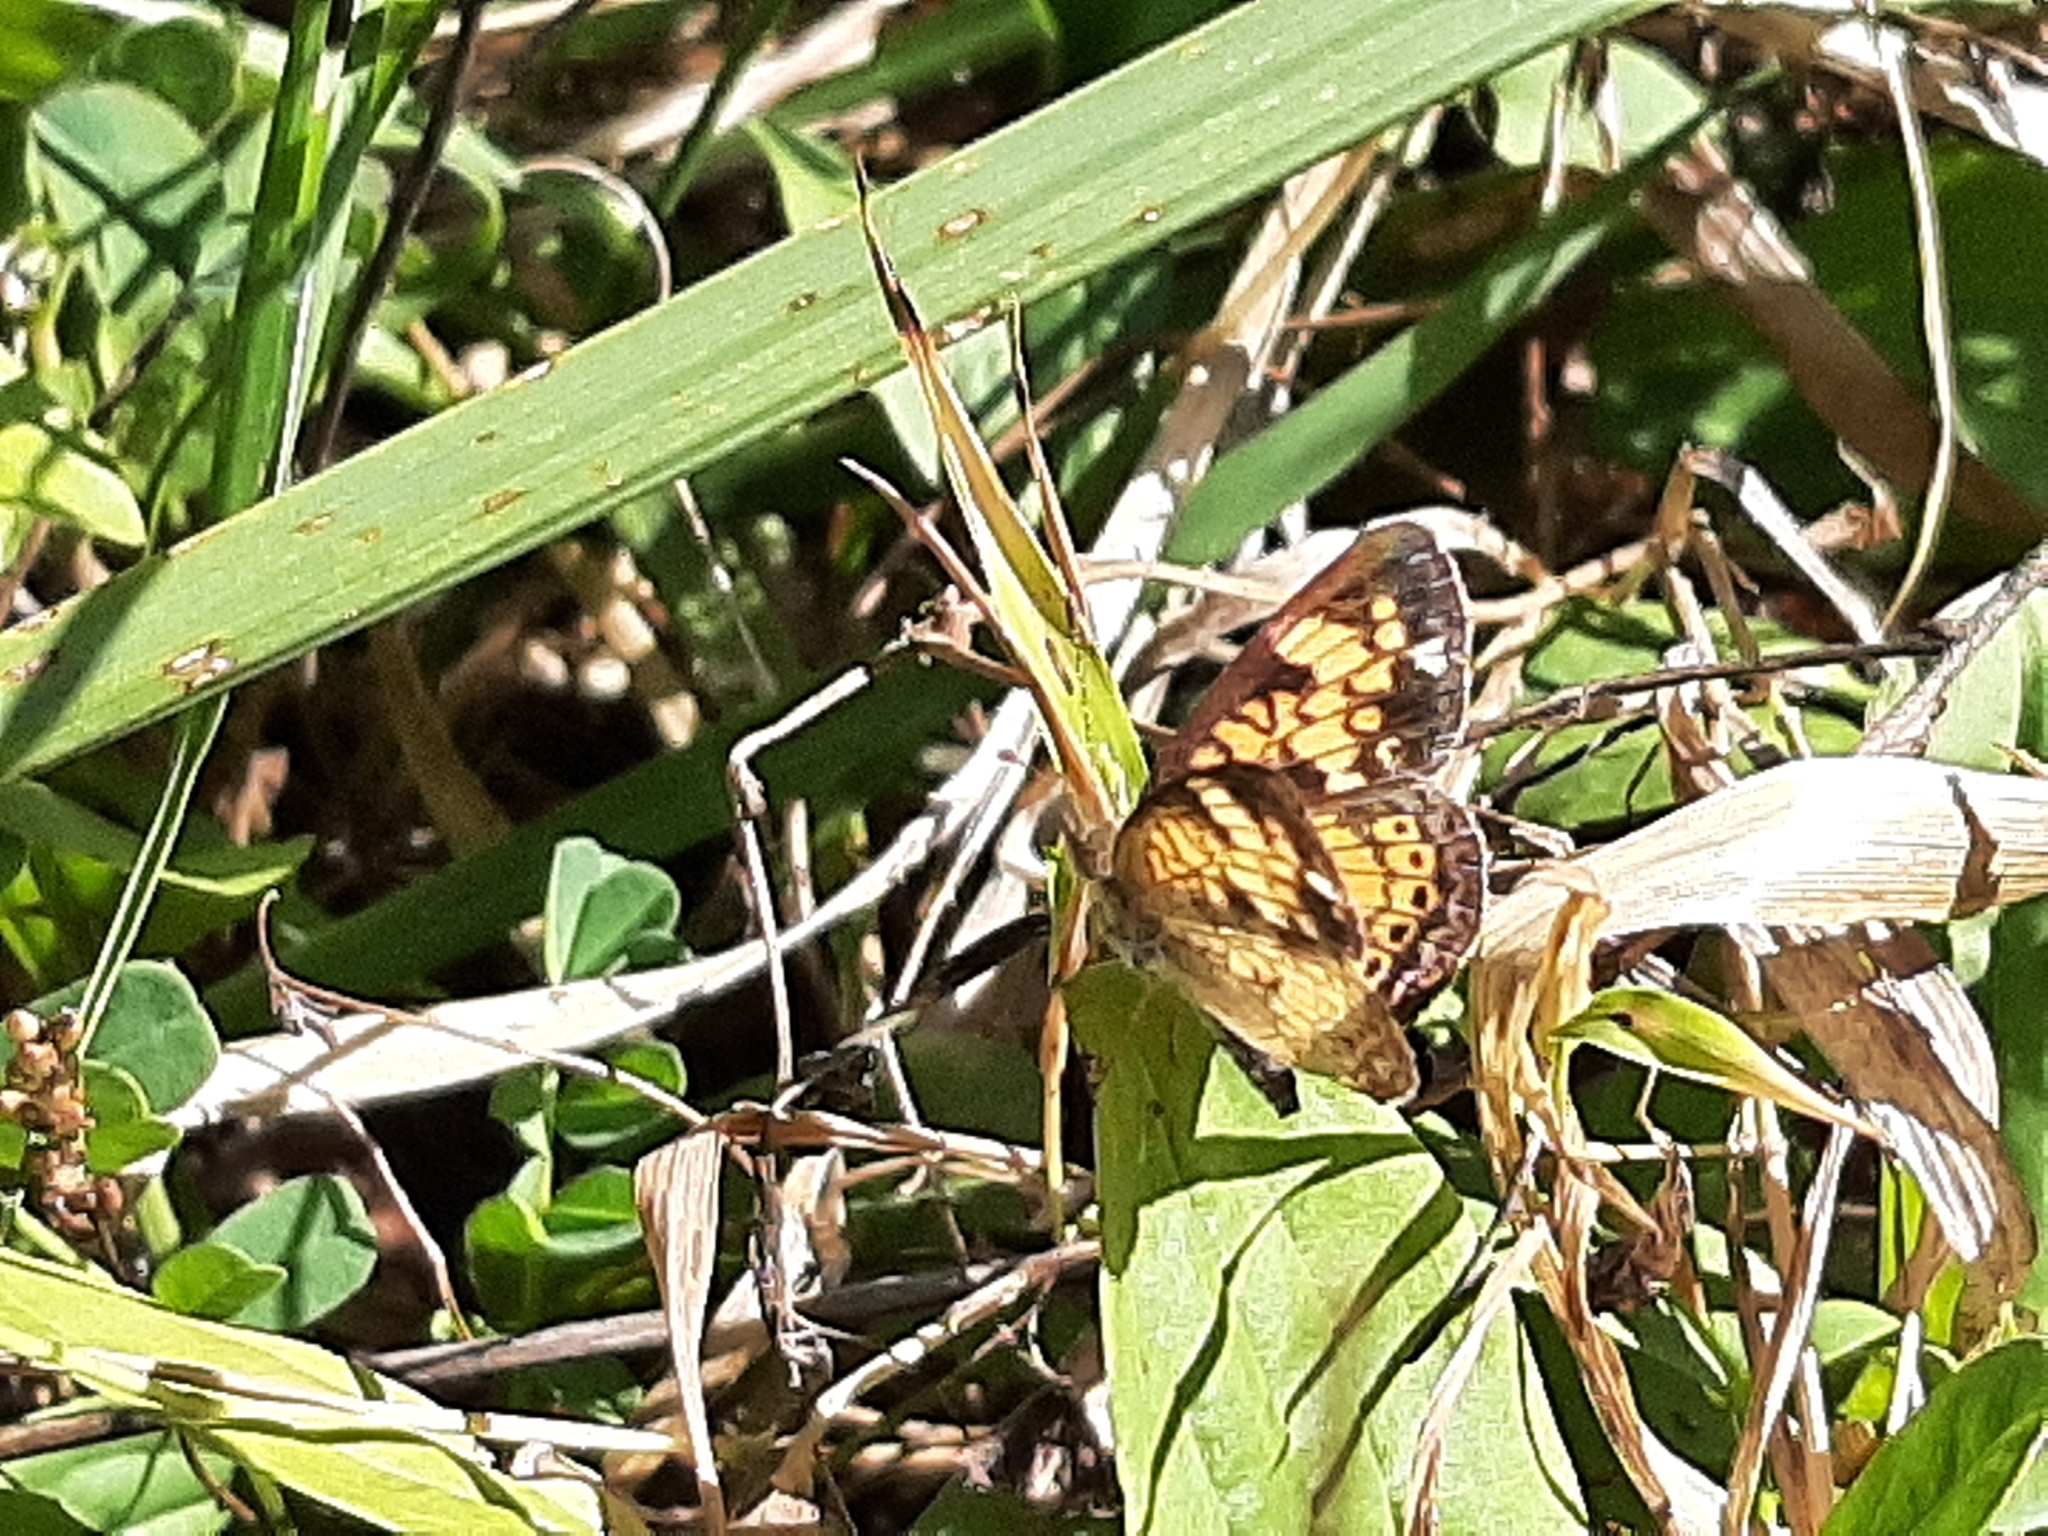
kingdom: Animalia
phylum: Arthropoda
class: Insecta
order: Lepidoptera
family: Nymphalidae
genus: Phyciodes
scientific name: Phyciodes tharos
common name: Pearl crescent
